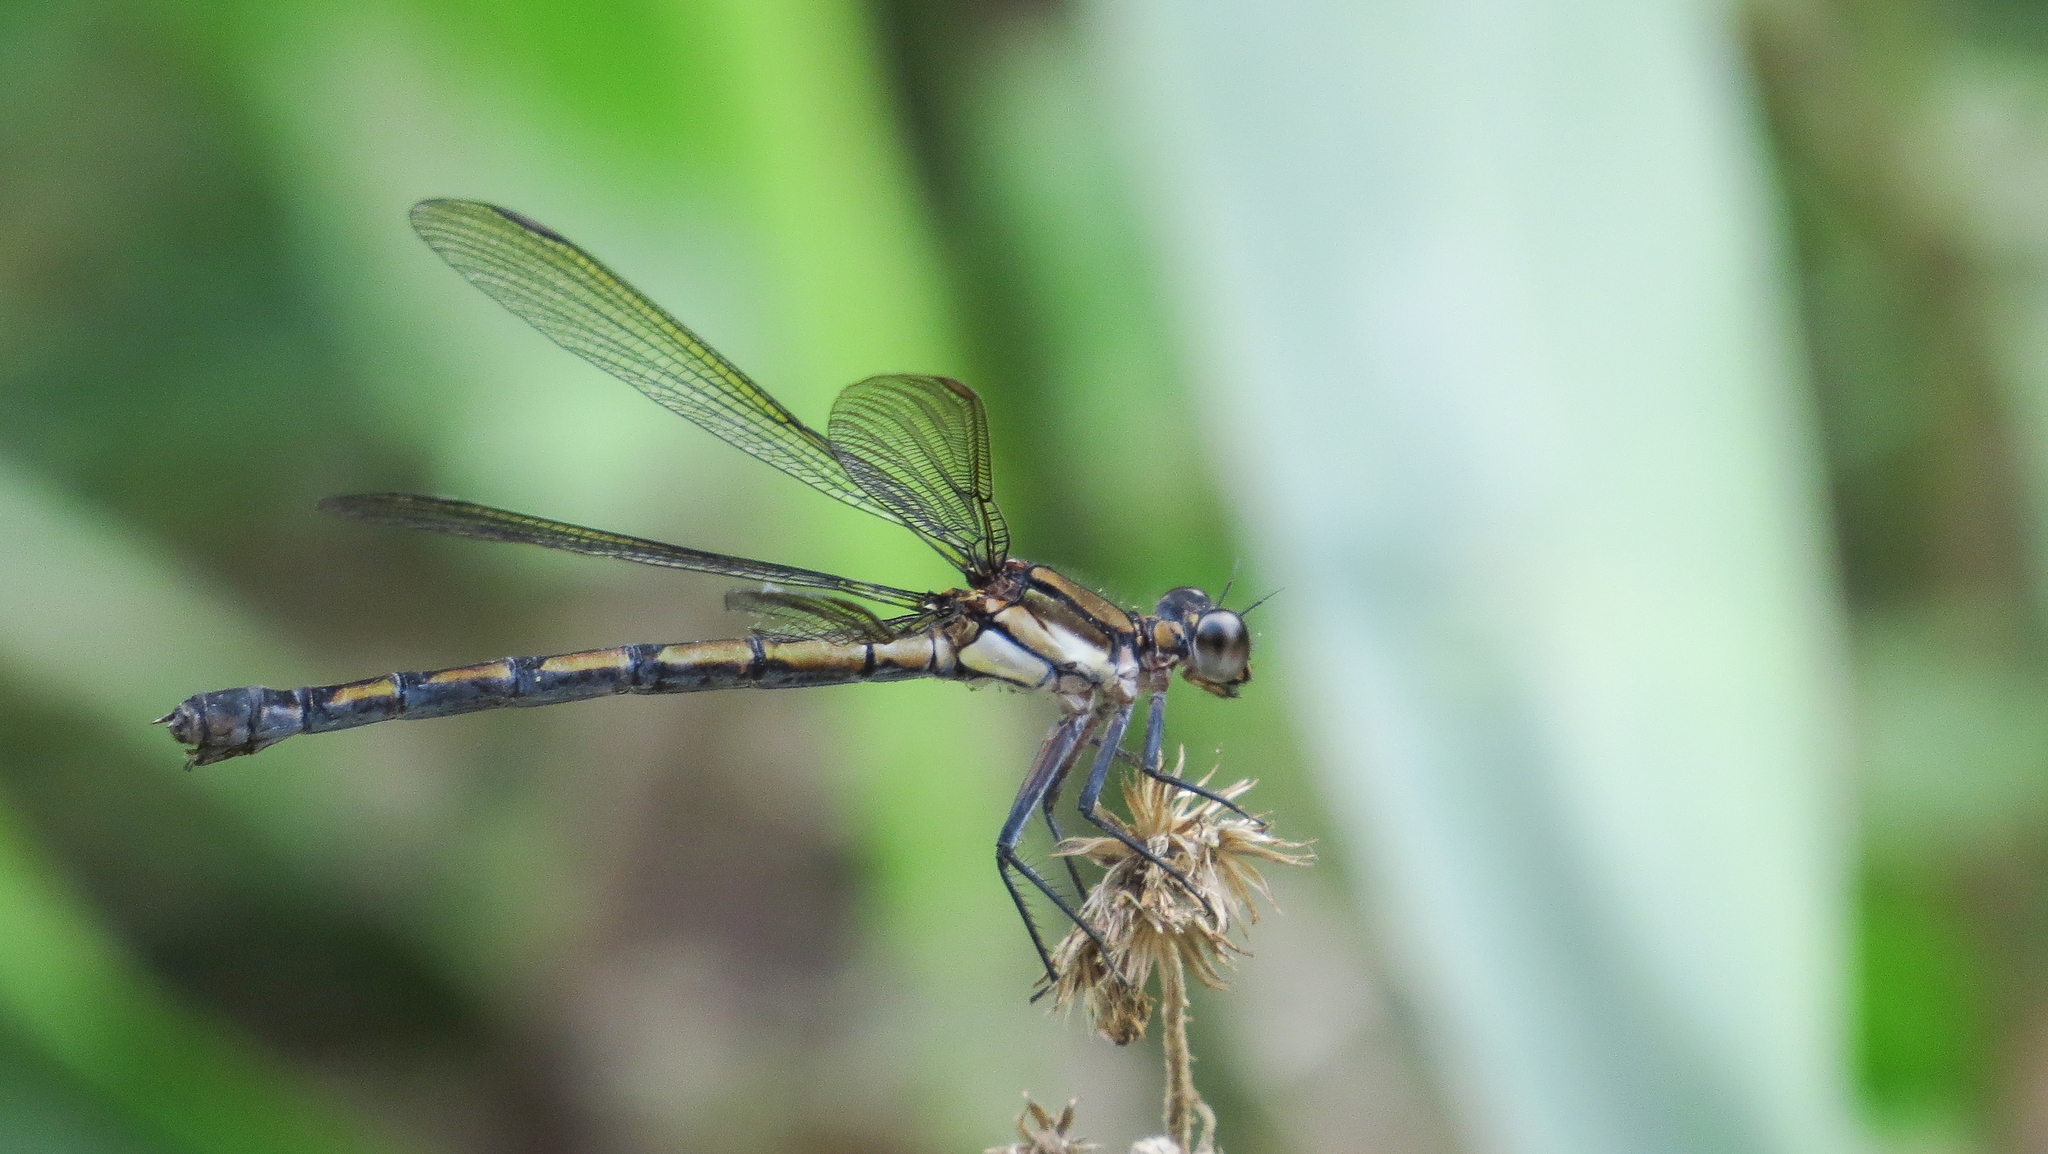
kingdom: Animalia
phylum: Arthropoda
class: Insecta
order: Odonata
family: Lestoideidae
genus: Diphlebia
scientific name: Diphlebia coerulescens
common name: Sapphire rockmaster
